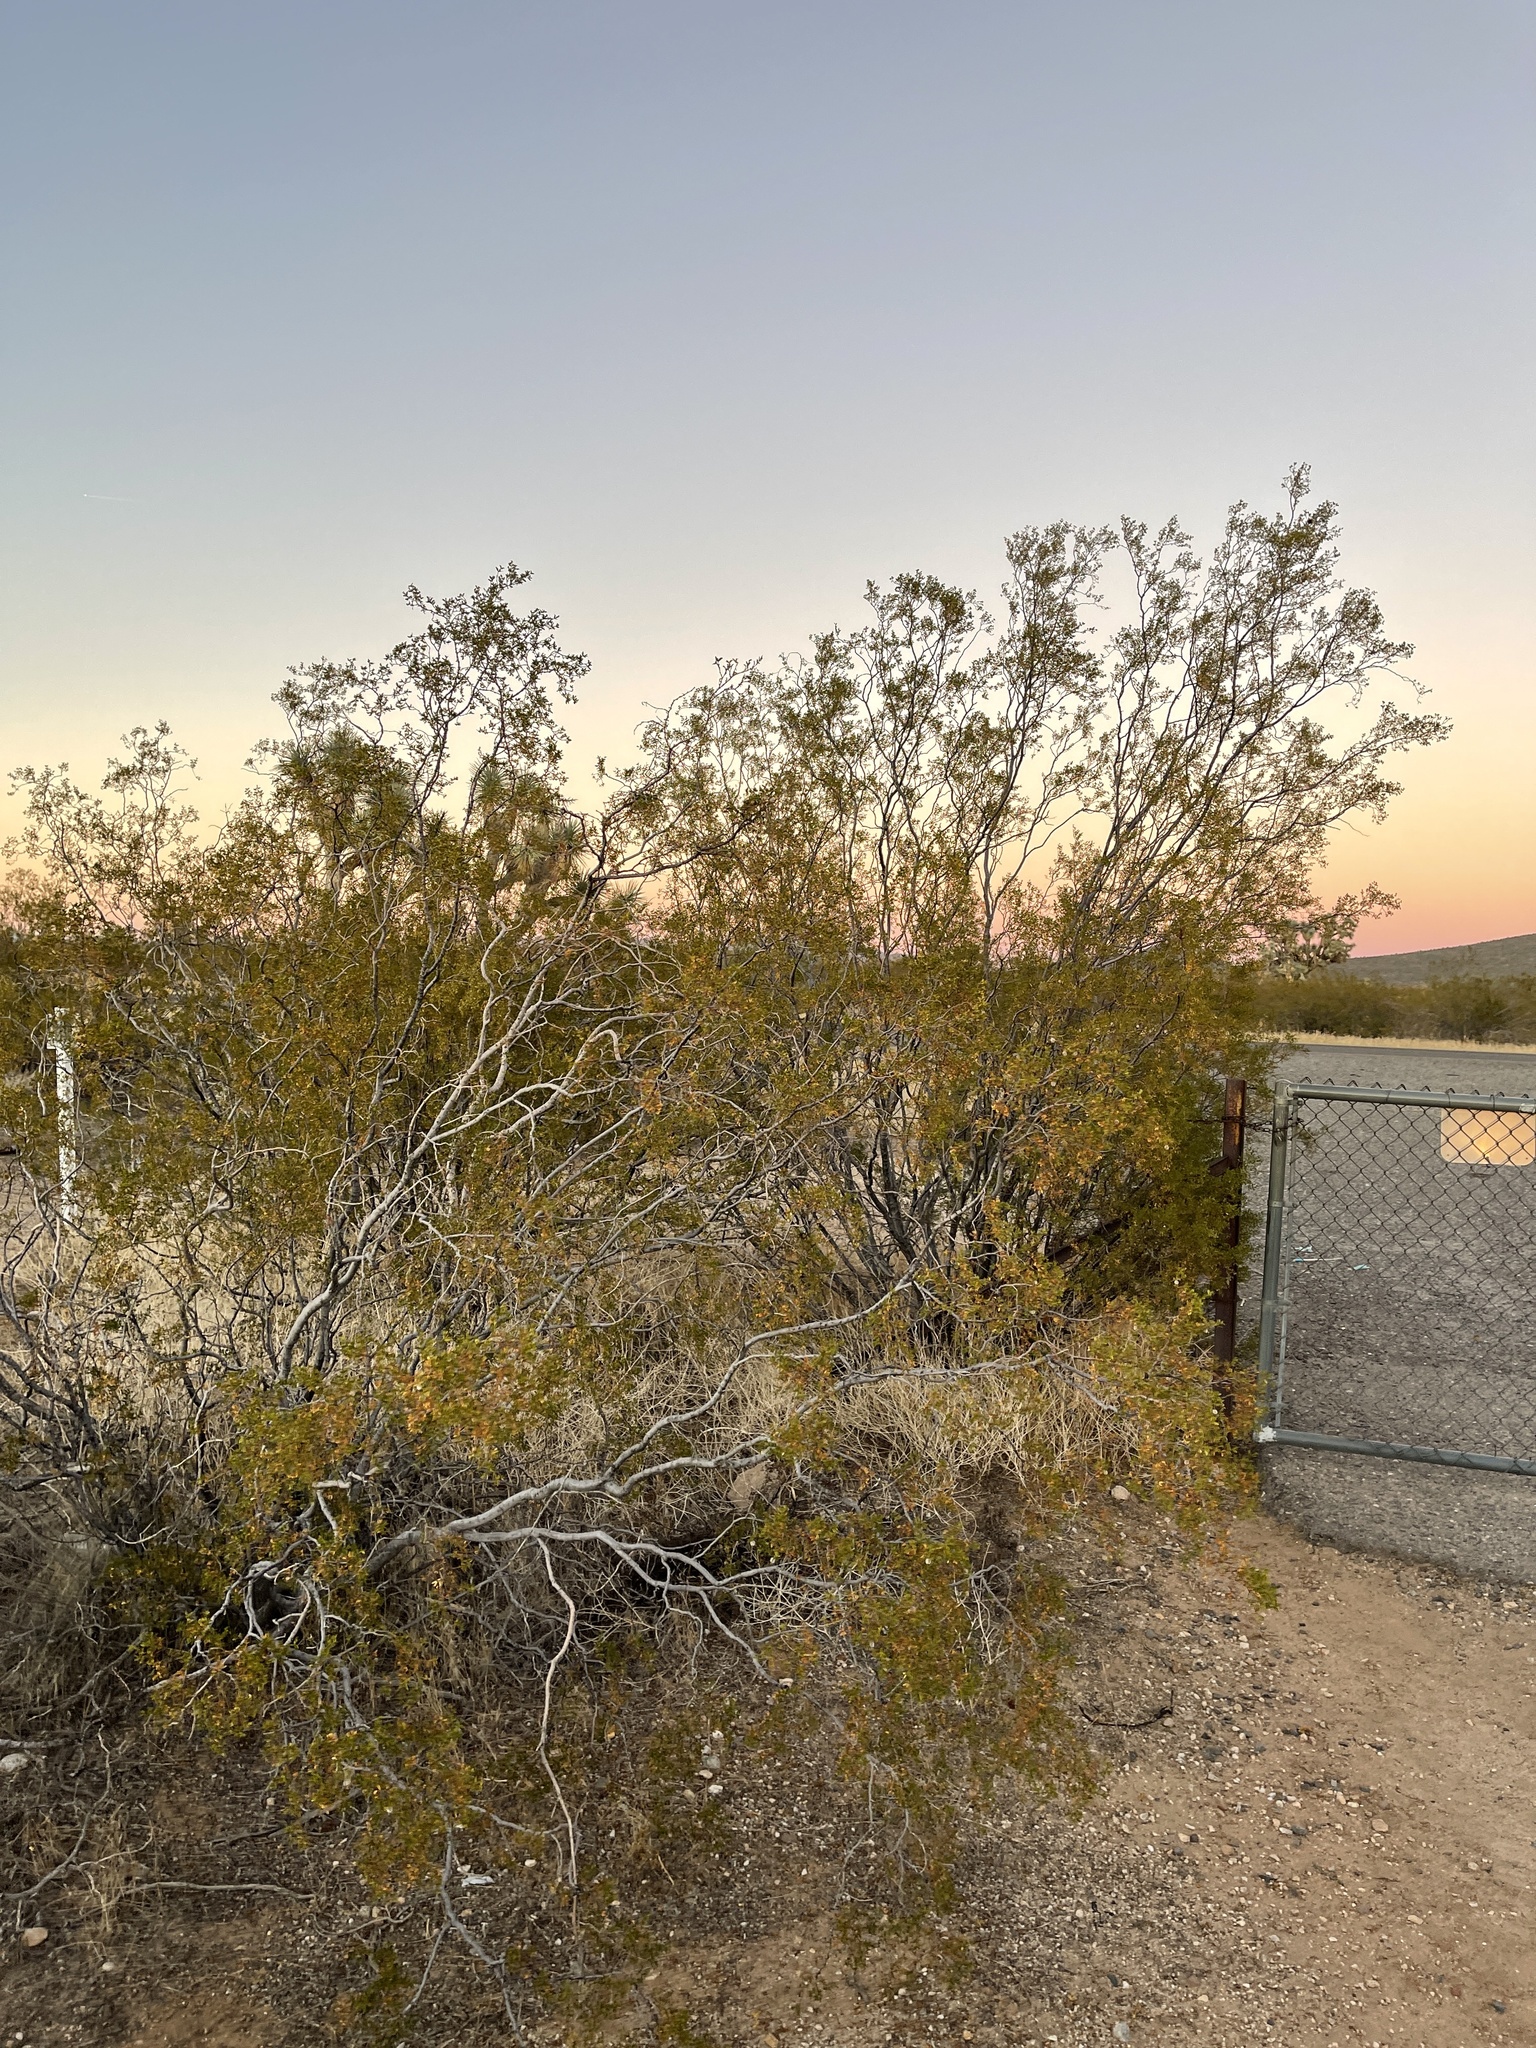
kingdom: Plantae
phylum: Tracheophyta
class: Magnoliopsida
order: Zygophyllales
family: Zygophyllaceae
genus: Larrea
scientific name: Larrea tridentata
